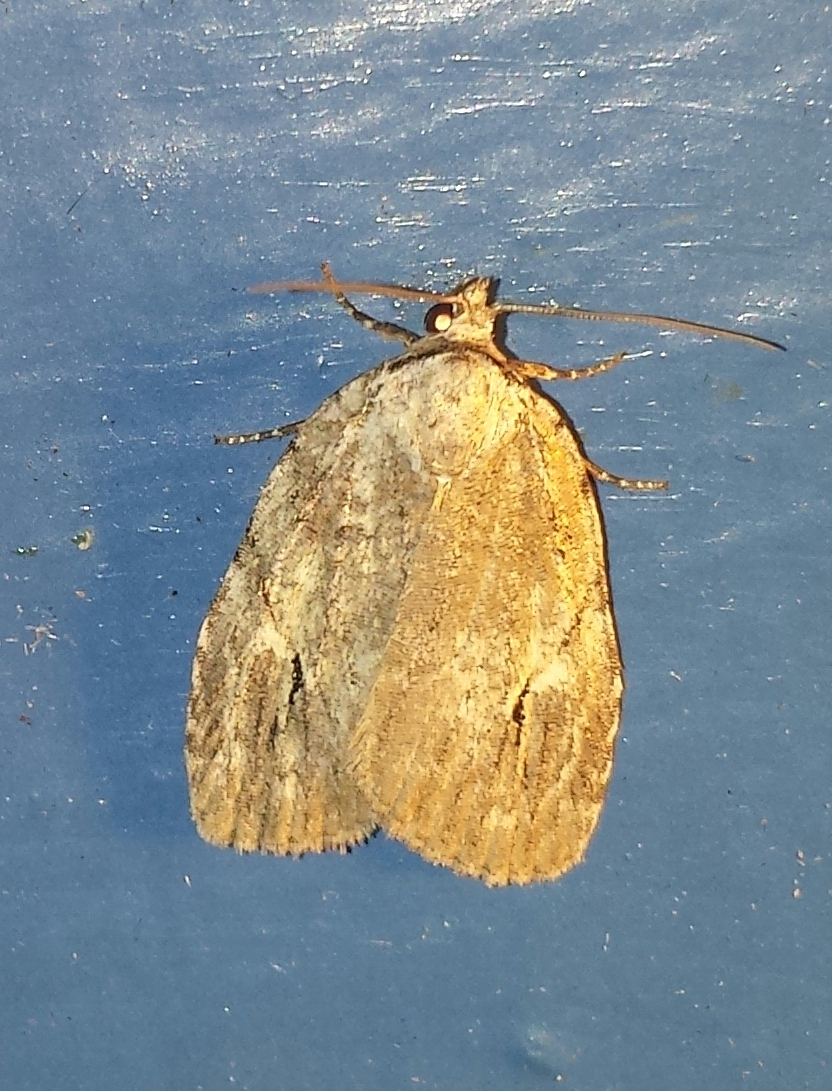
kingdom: Animalia
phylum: Arthropoda
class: Insecta
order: Lepidoptera
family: Noctuidae
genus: Balsa
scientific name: Balsa labecula
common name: White-blotched balsa moth
